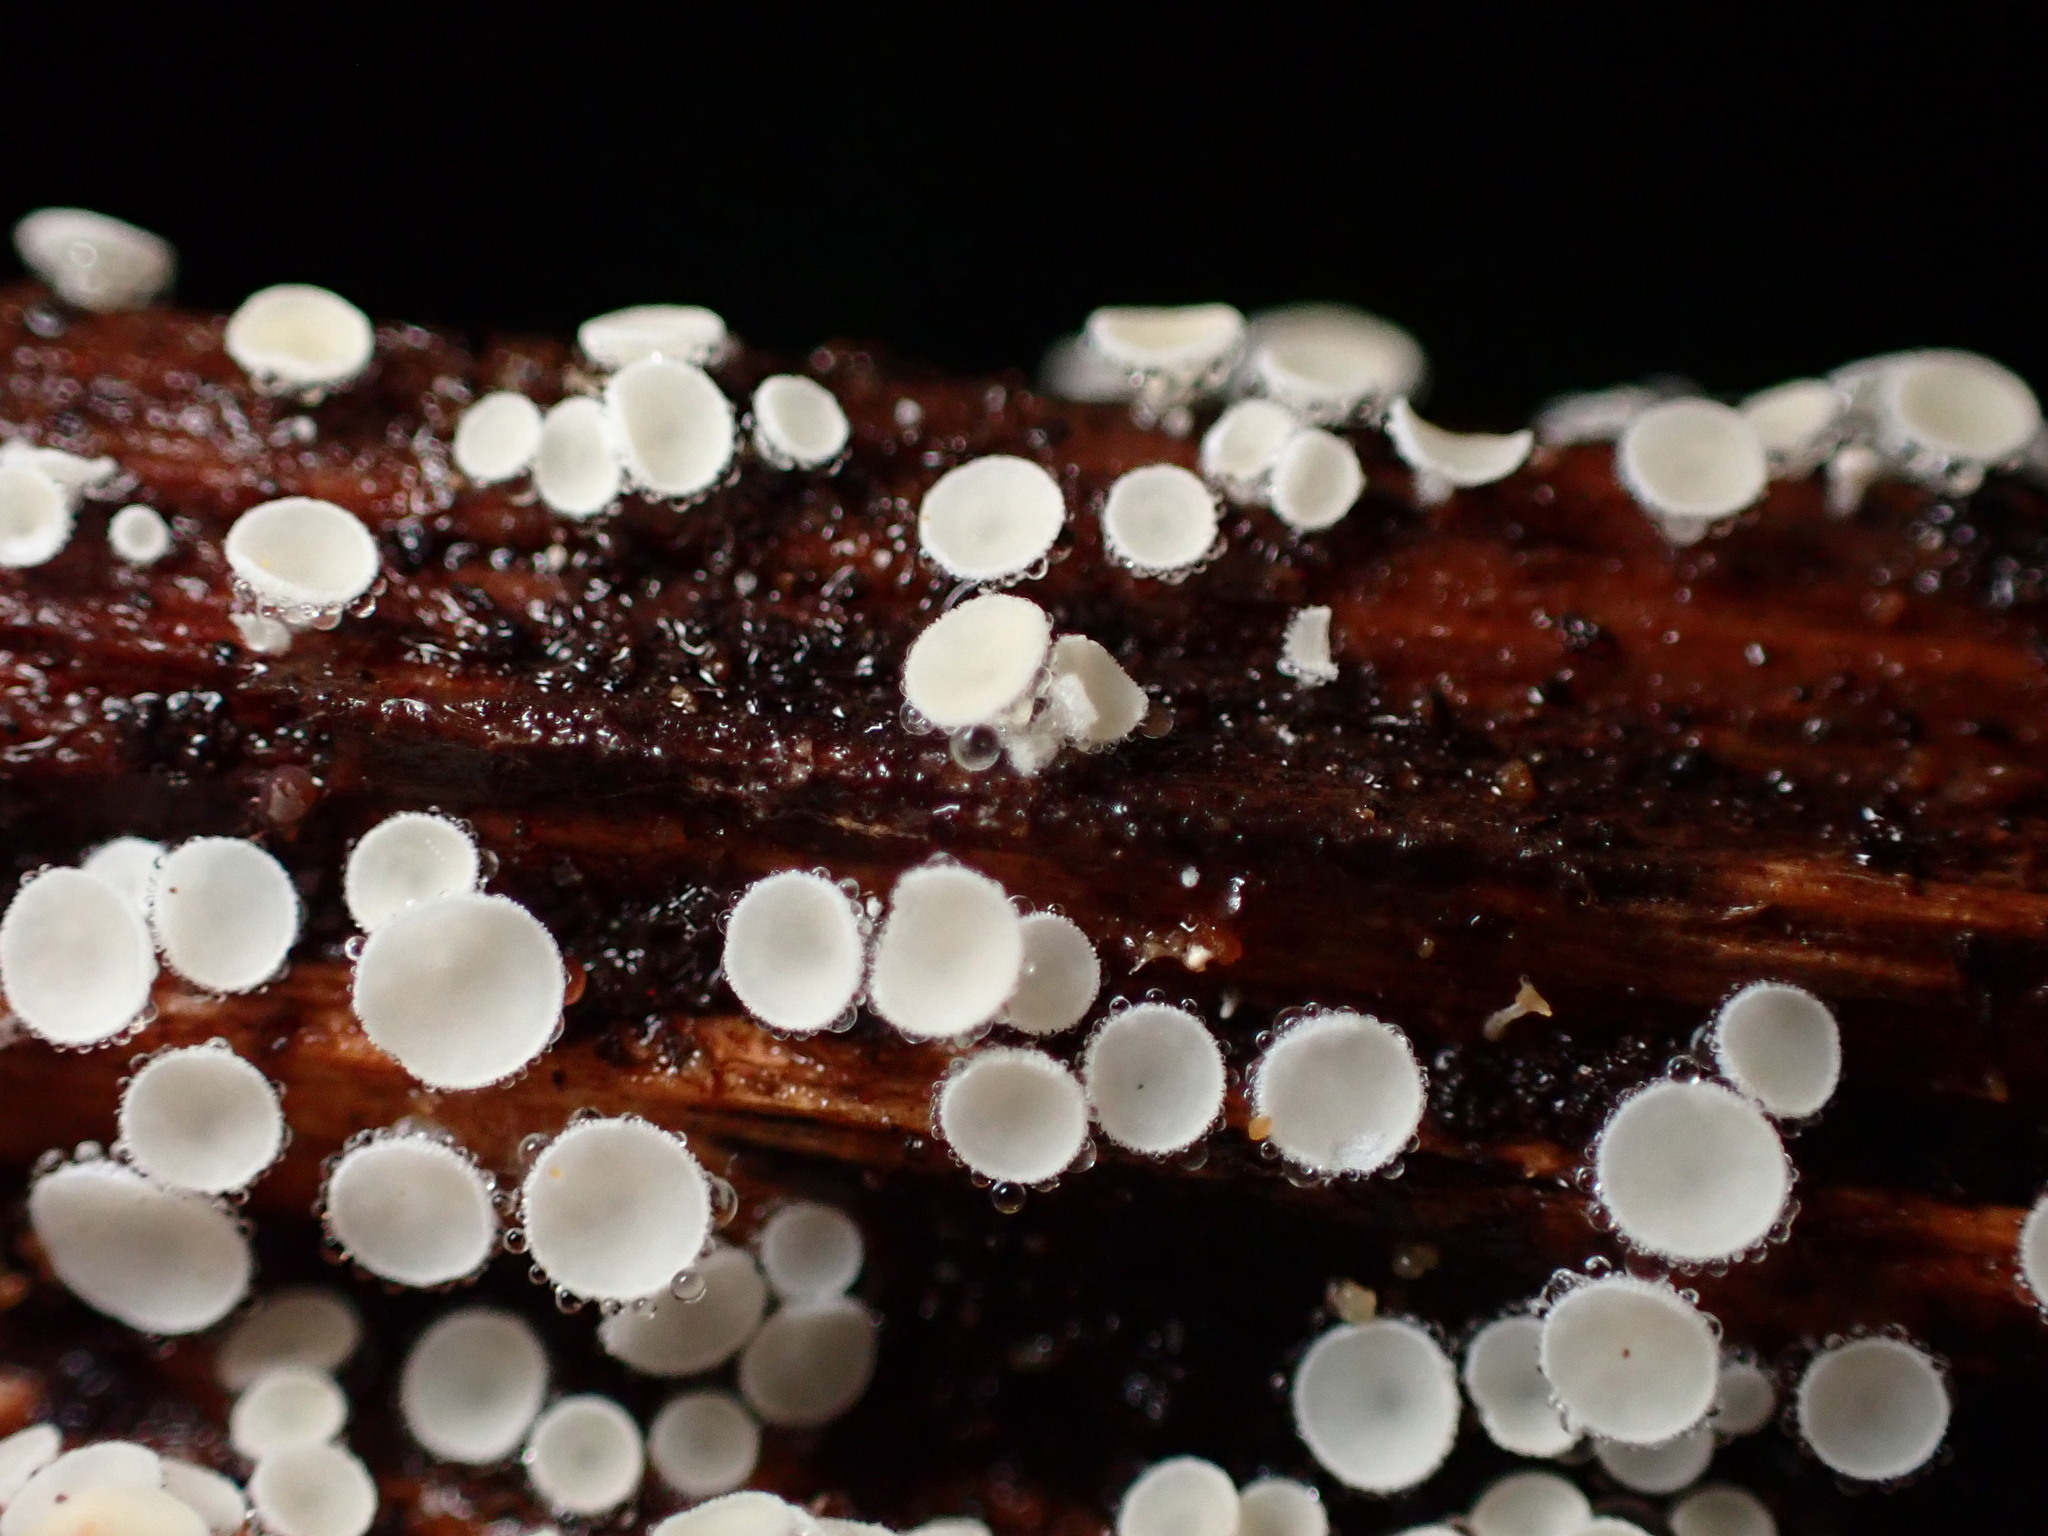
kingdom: Fungi
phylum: Ascomycota
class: Leotiomycetes
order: Helotiales
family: Lachnaceae
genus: Lachnum
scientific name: Lachnum virgineum
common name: Snowy disco
